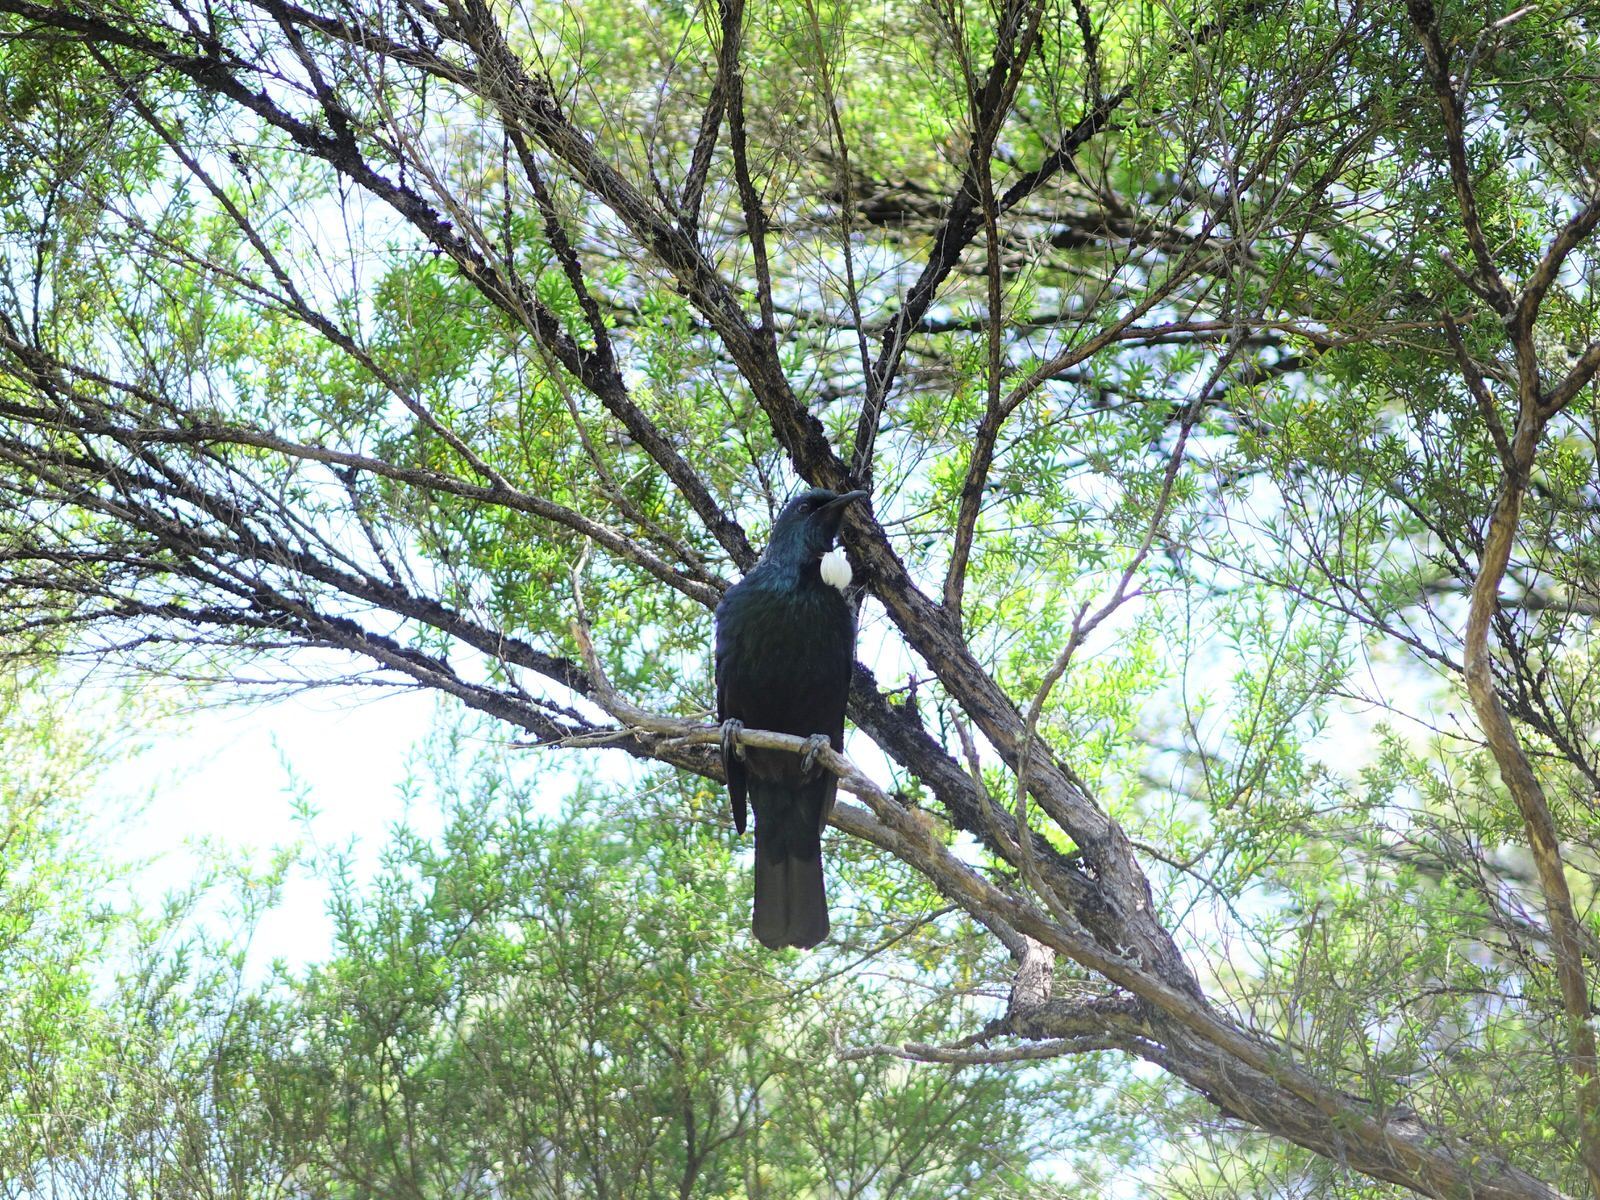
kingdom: Animalia
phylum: Chordata
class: Aves
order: Passeriformes
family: Meliphagidae
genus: Prosthemadera
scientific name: Prosthemadera novaeseelandiae
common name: Tui
